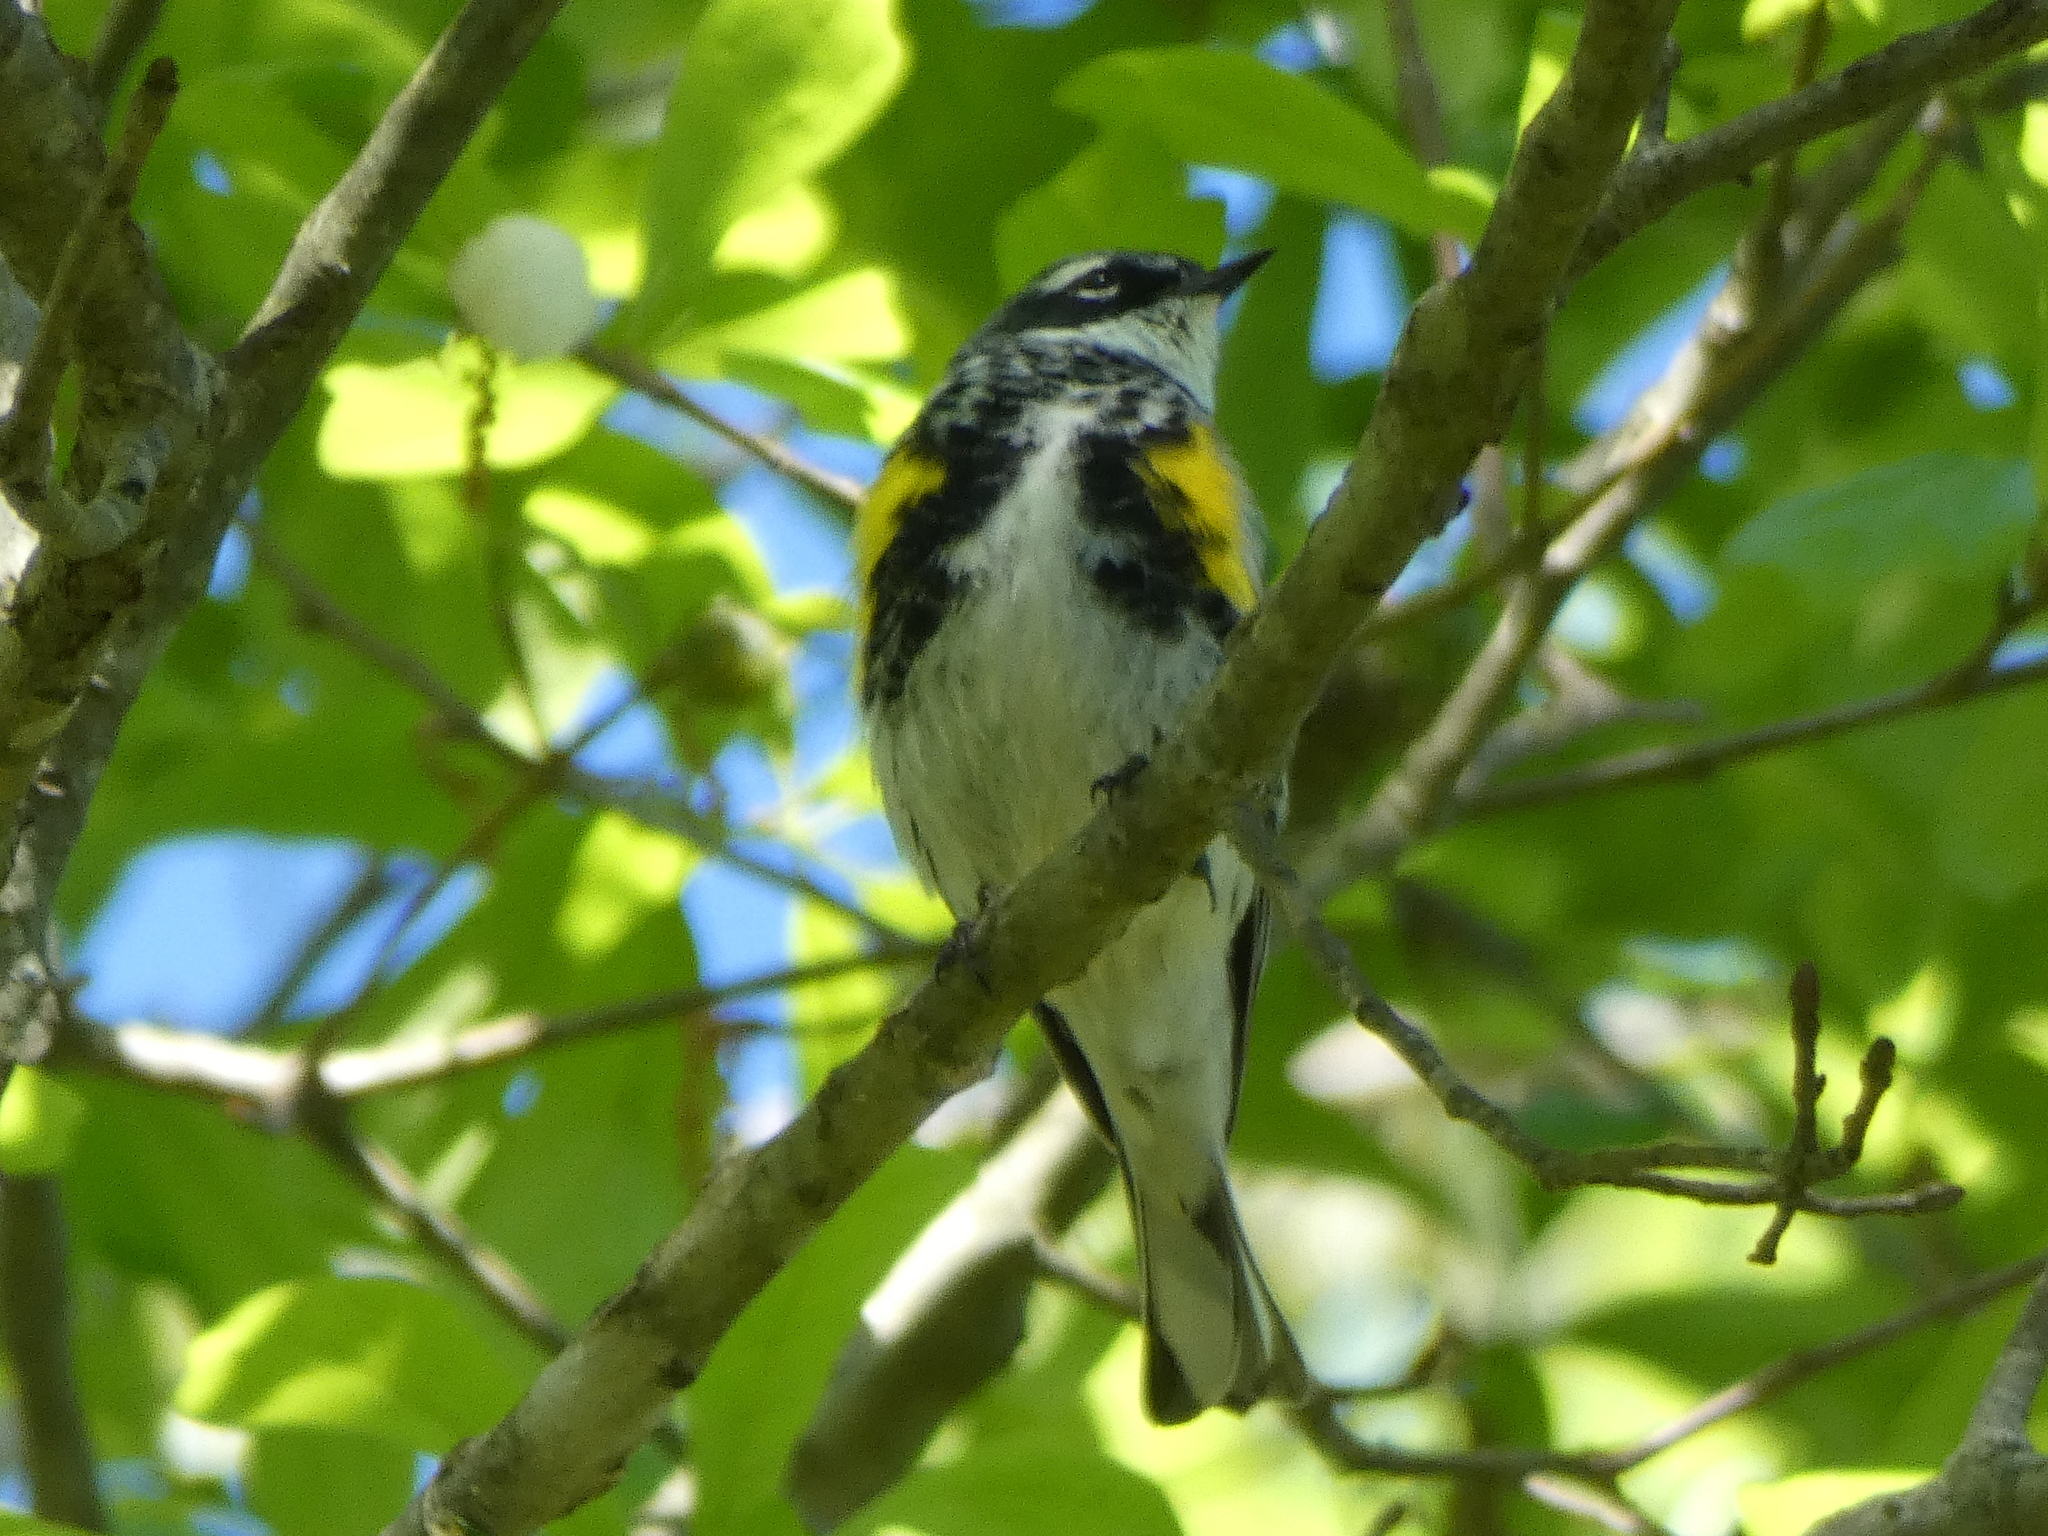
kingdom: Animalia
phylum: Chordata
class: Aves
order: Passeriformes
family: Parulidae
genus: Setophaga
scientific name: Setophaga coronata
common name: Myrtle warbler
